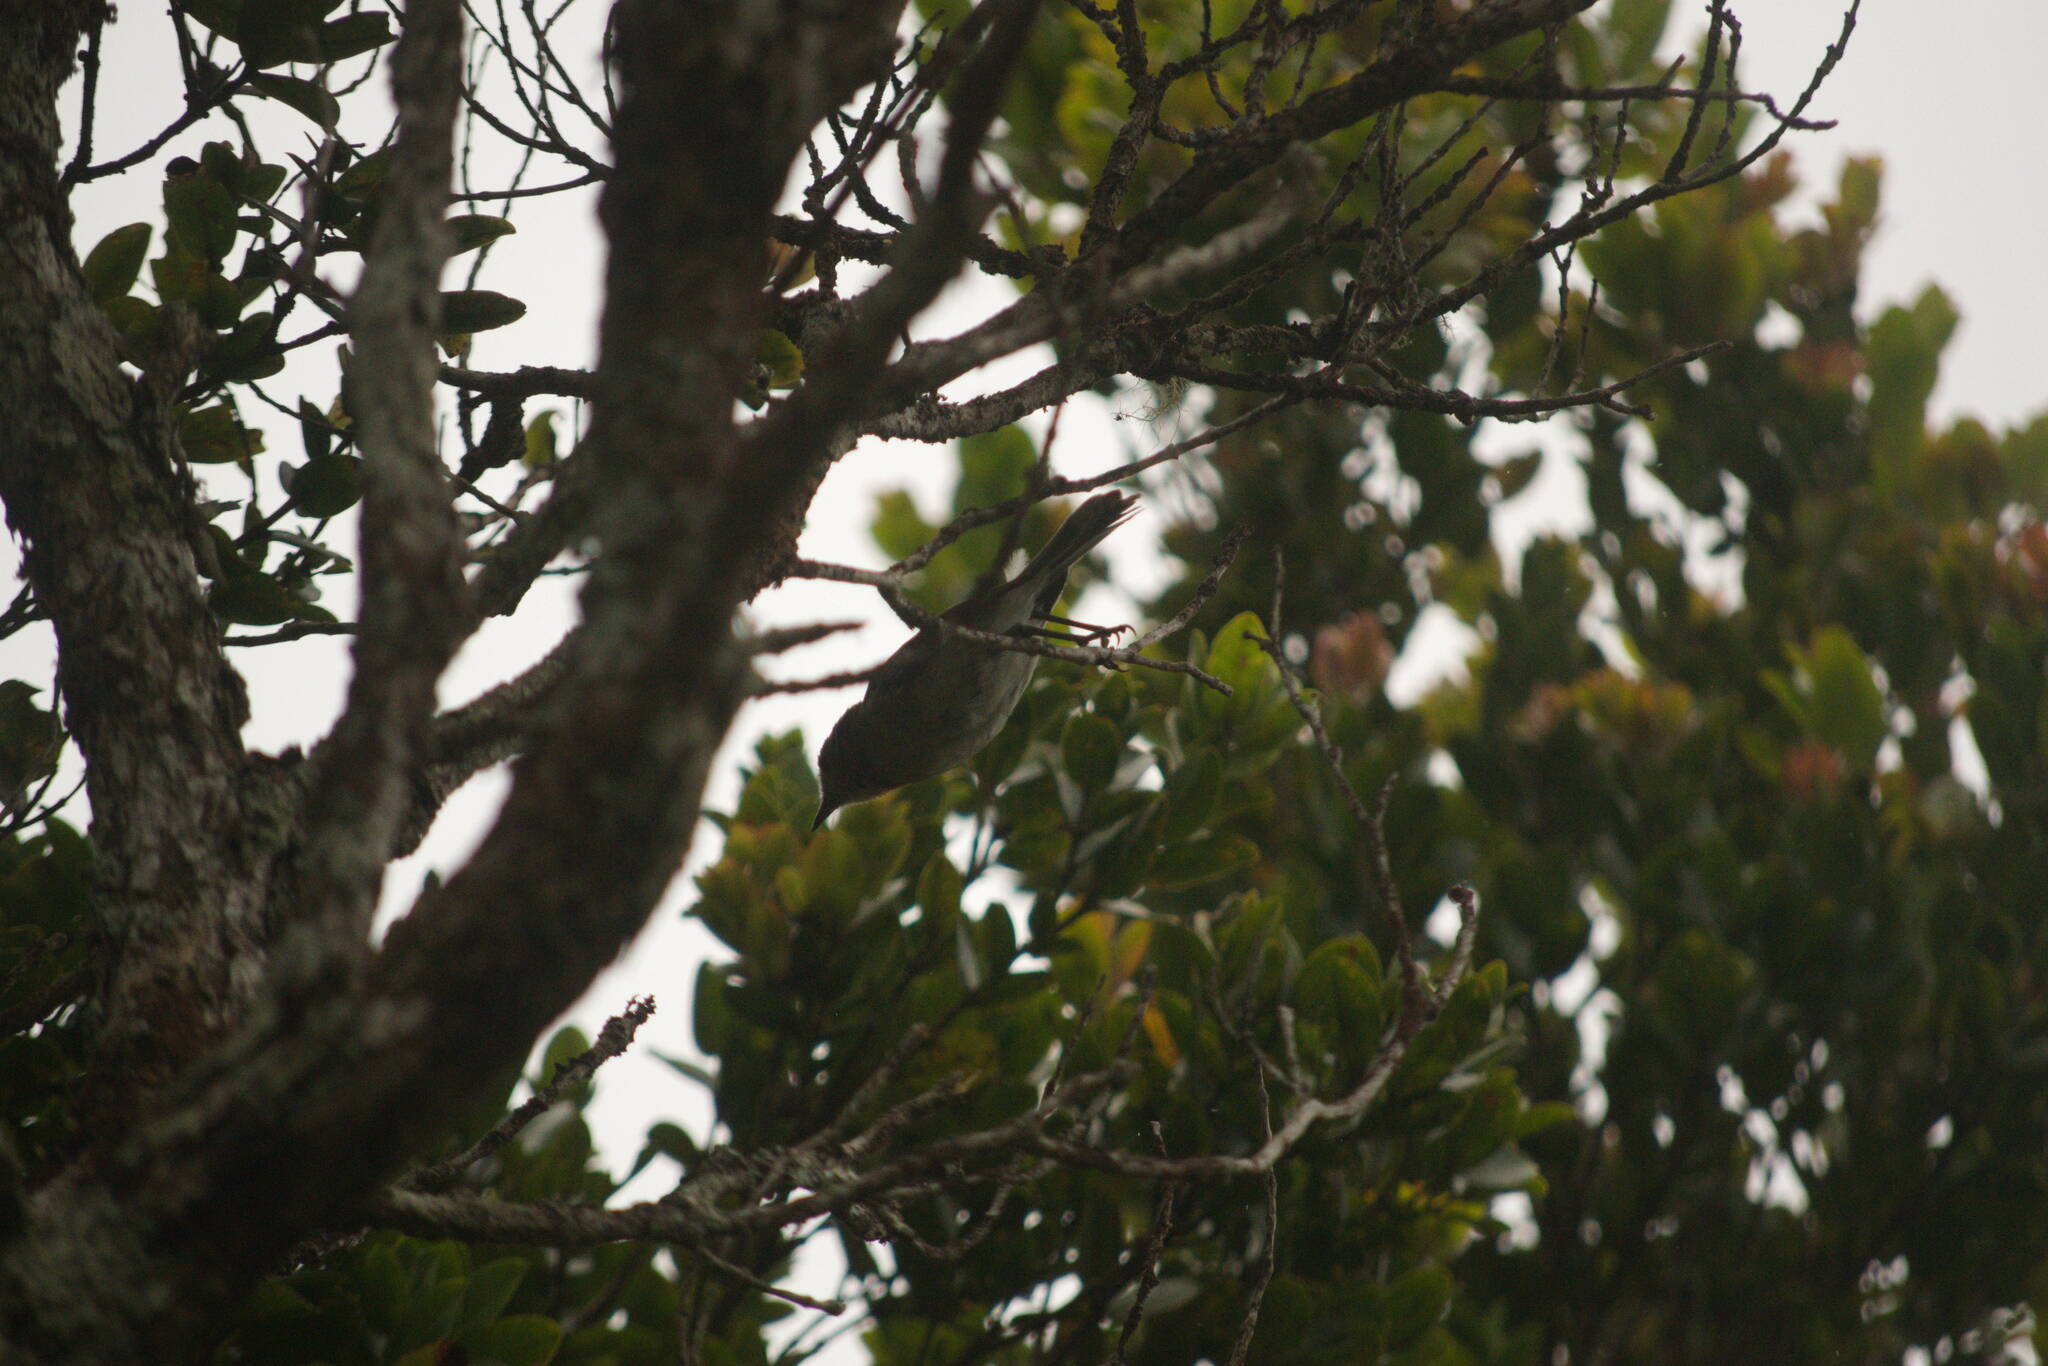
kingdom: Animalia
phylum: Chordata
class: Aves
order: Passeriformes
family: Monarchidae
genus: Chasiempis
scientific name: Chasiempis sclateri
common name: Kauai elepaio
